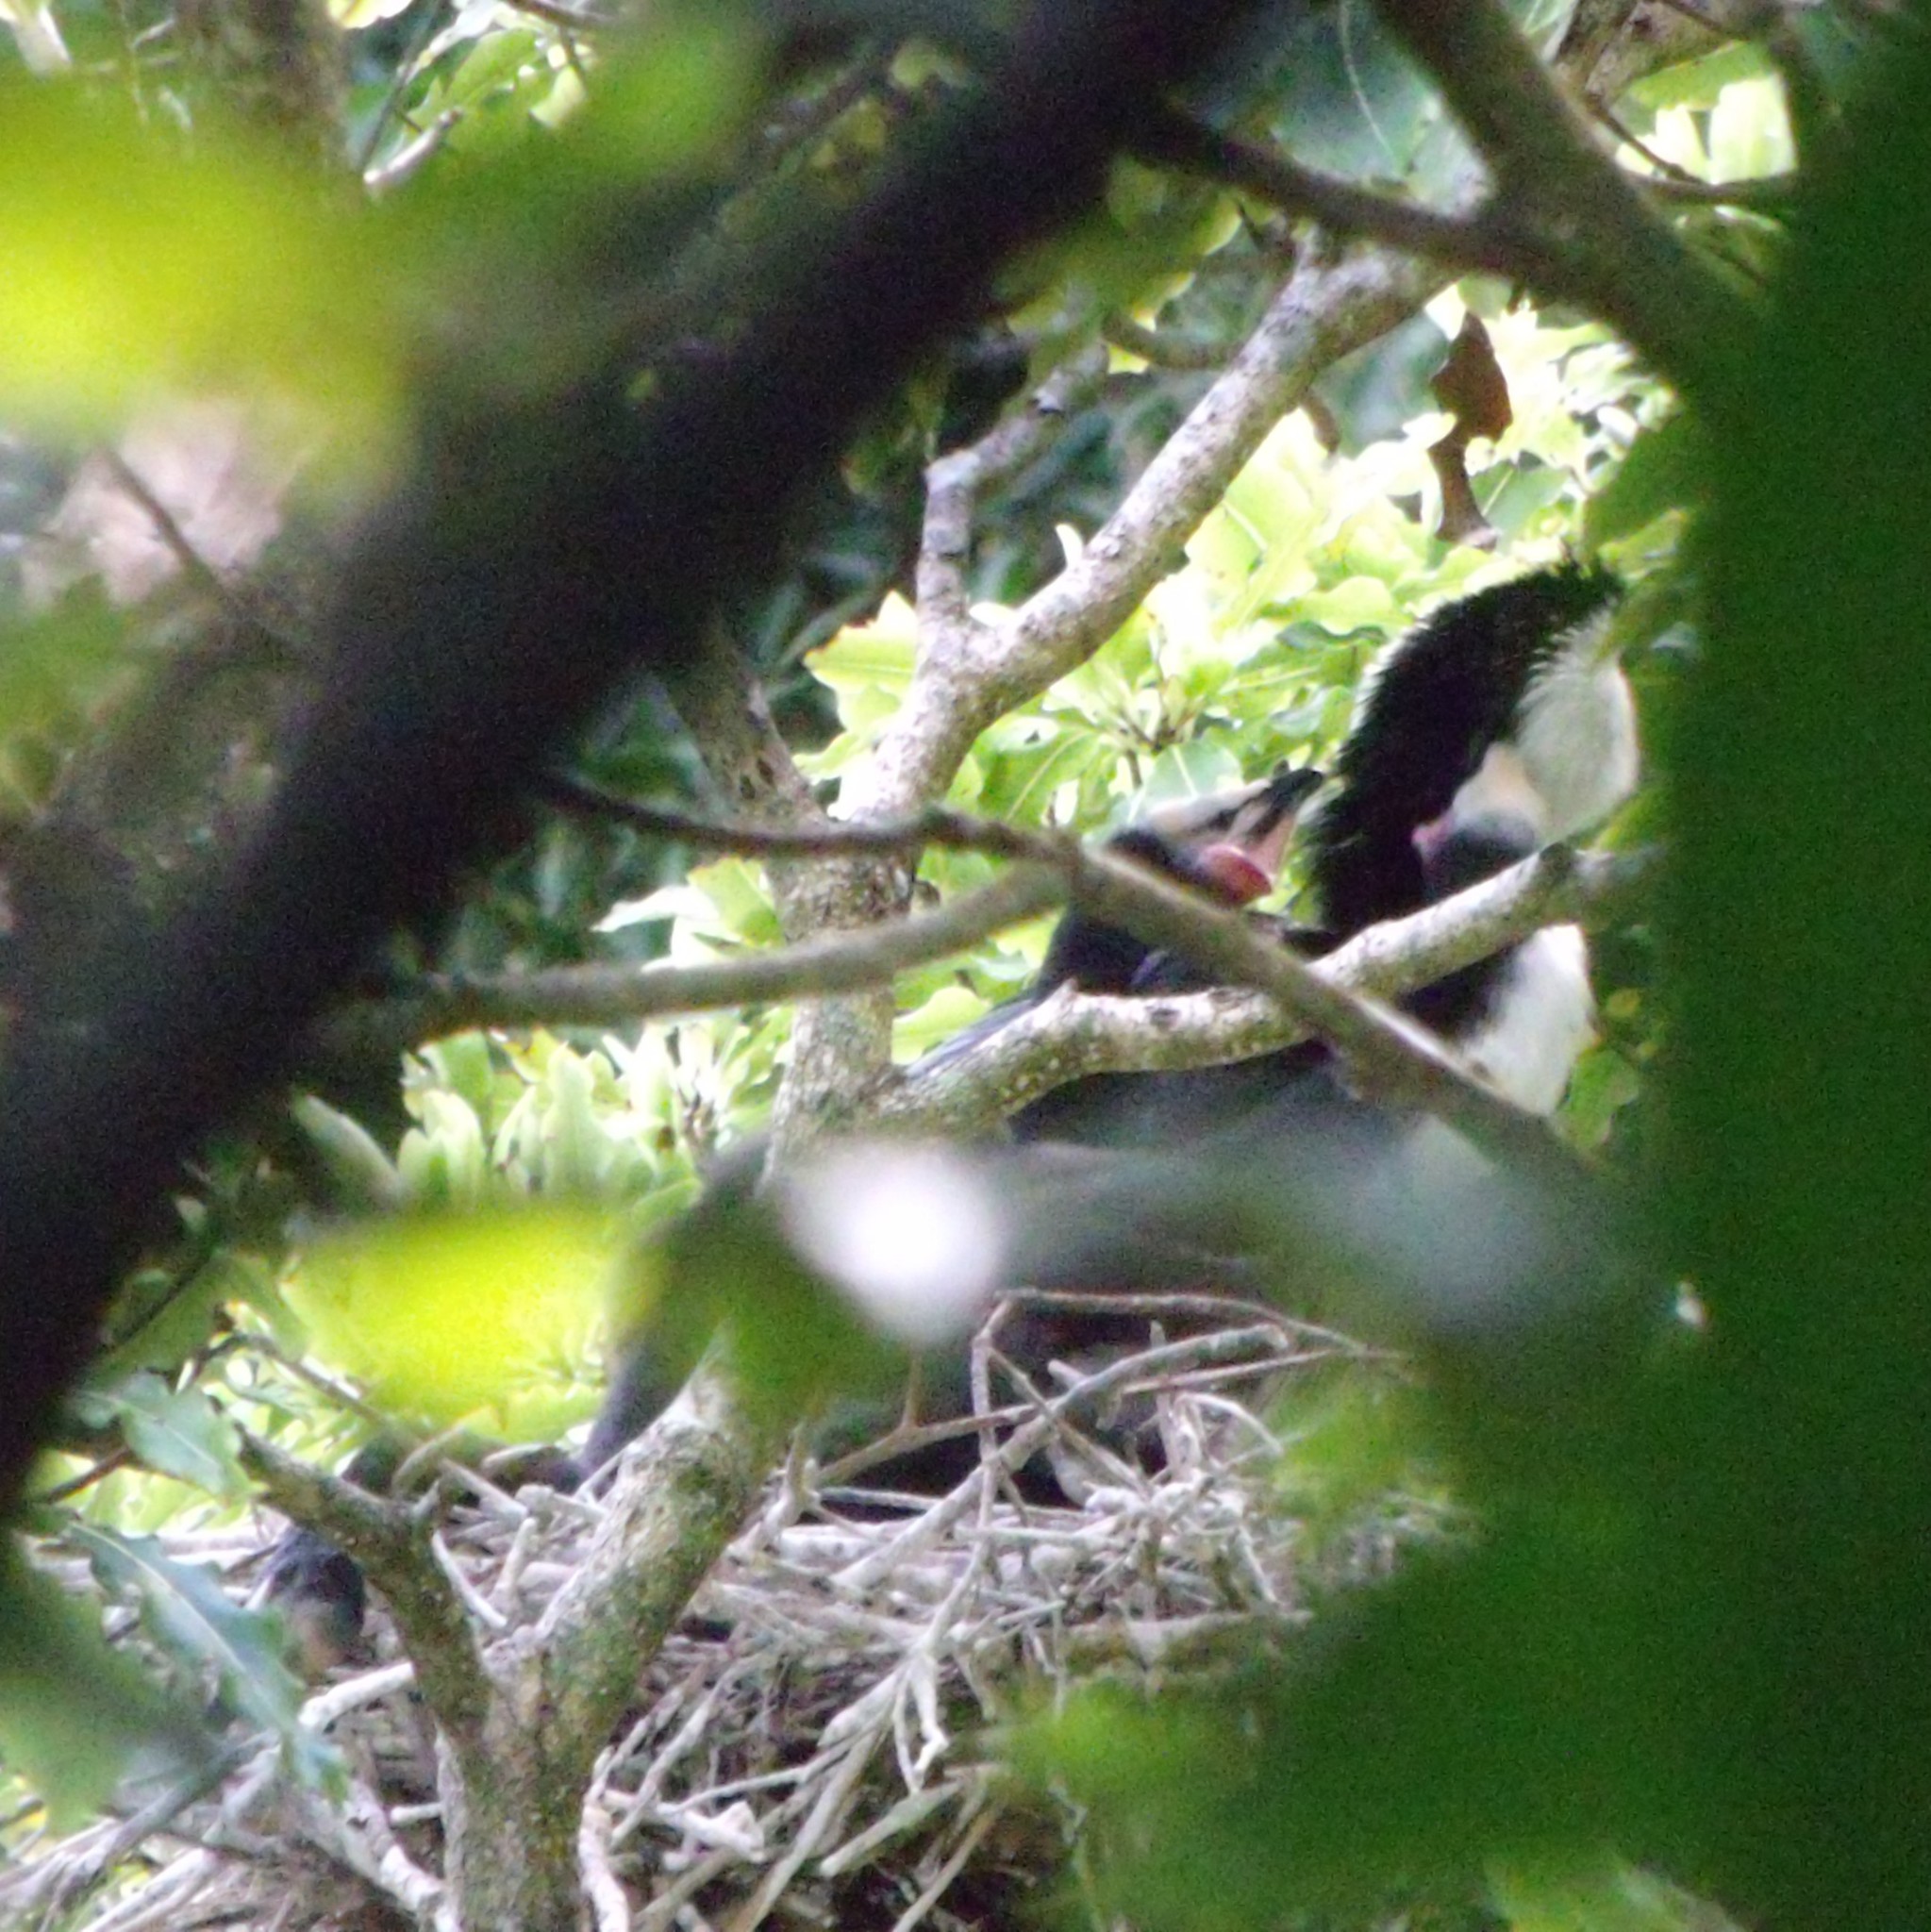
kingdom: Animalia
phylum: Chordata
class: Aves
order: Suliformes
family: Phalacrocoracidae
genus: Microcarbo
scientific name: Microcarbo melanoleucos
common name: Little pied cormorant
